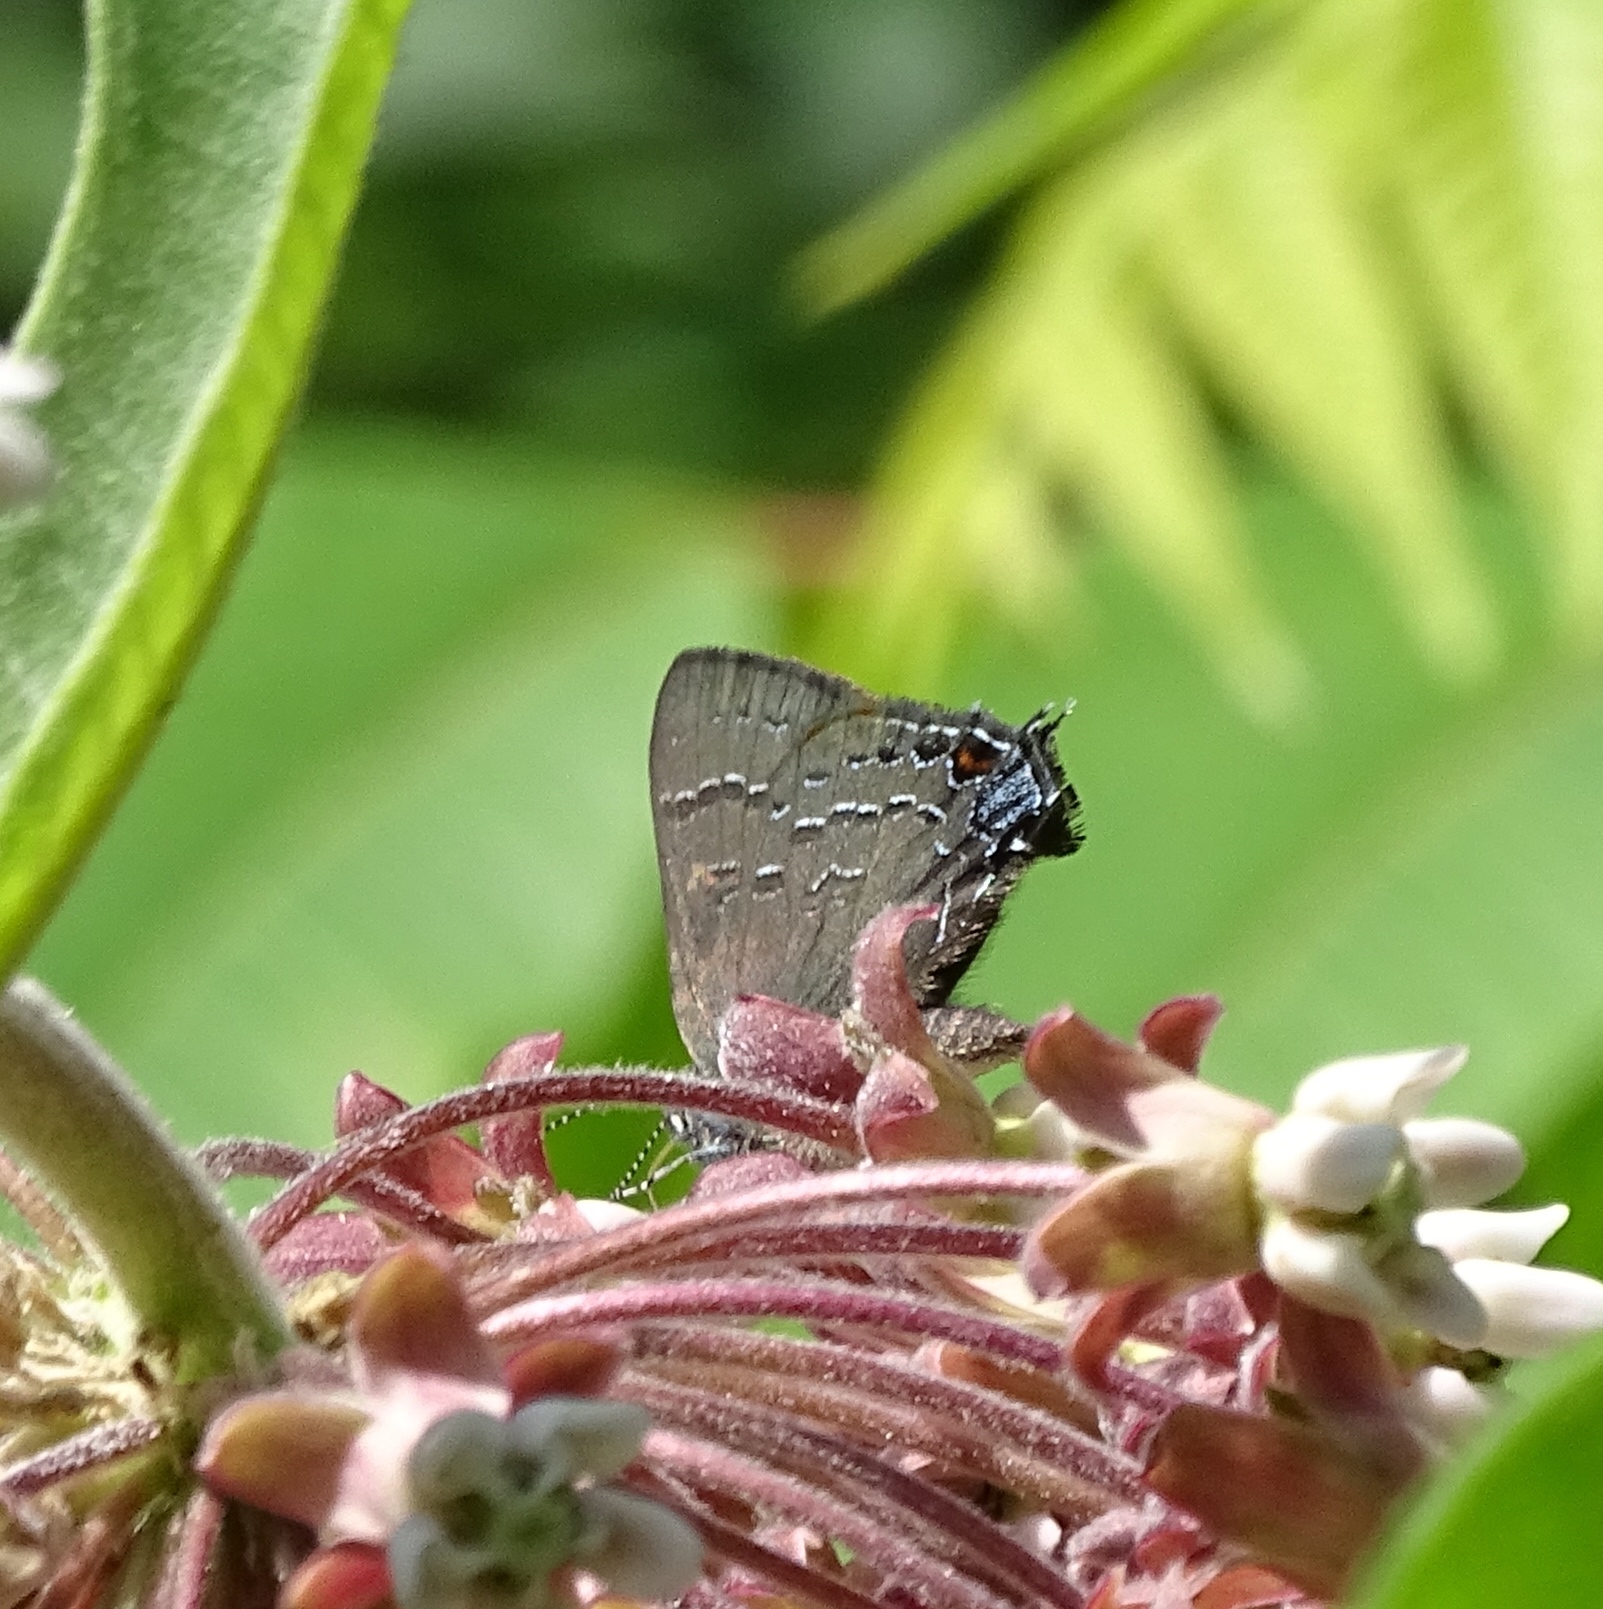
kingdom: Animalia
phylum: Arthropoda
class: Insecta
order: Lepidoptera
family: Lycaenidae
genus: Satyrium
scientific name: Satyrium calanus
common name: Banded hairstreak
